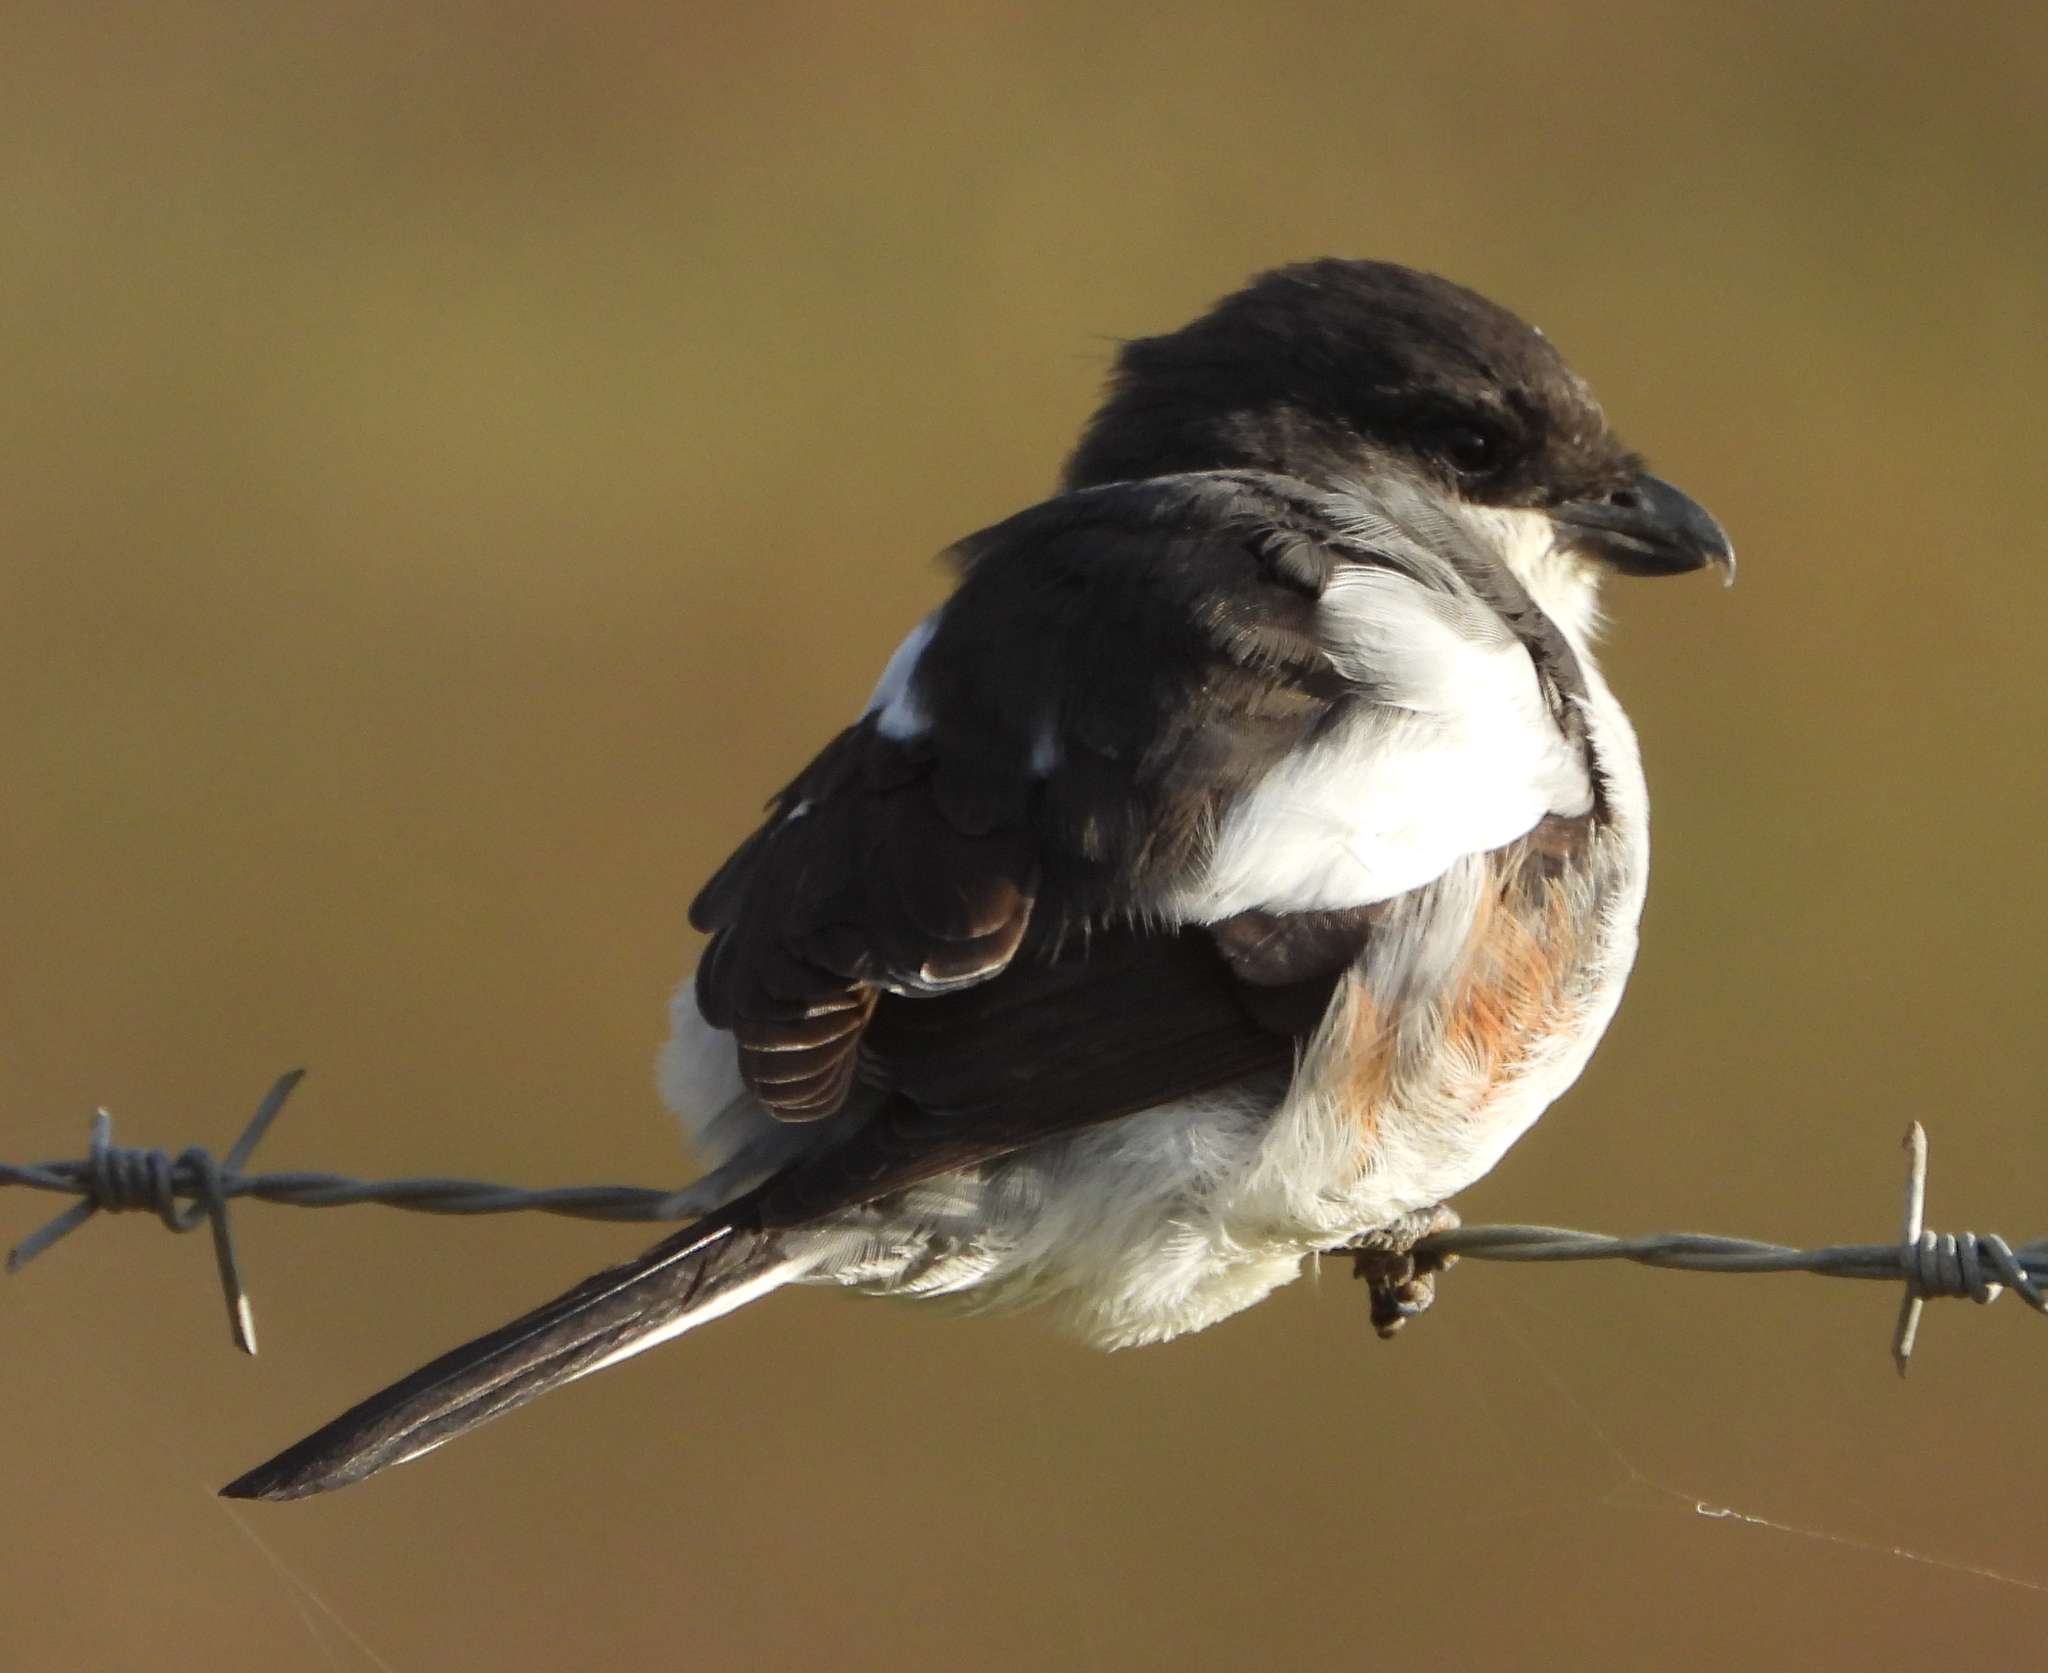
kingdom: Animalia
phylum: Chordata
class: Aves
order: Passeriformes
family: Laniidae
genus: Lanius
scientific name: Lanius collaris
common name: Southern fiscal
